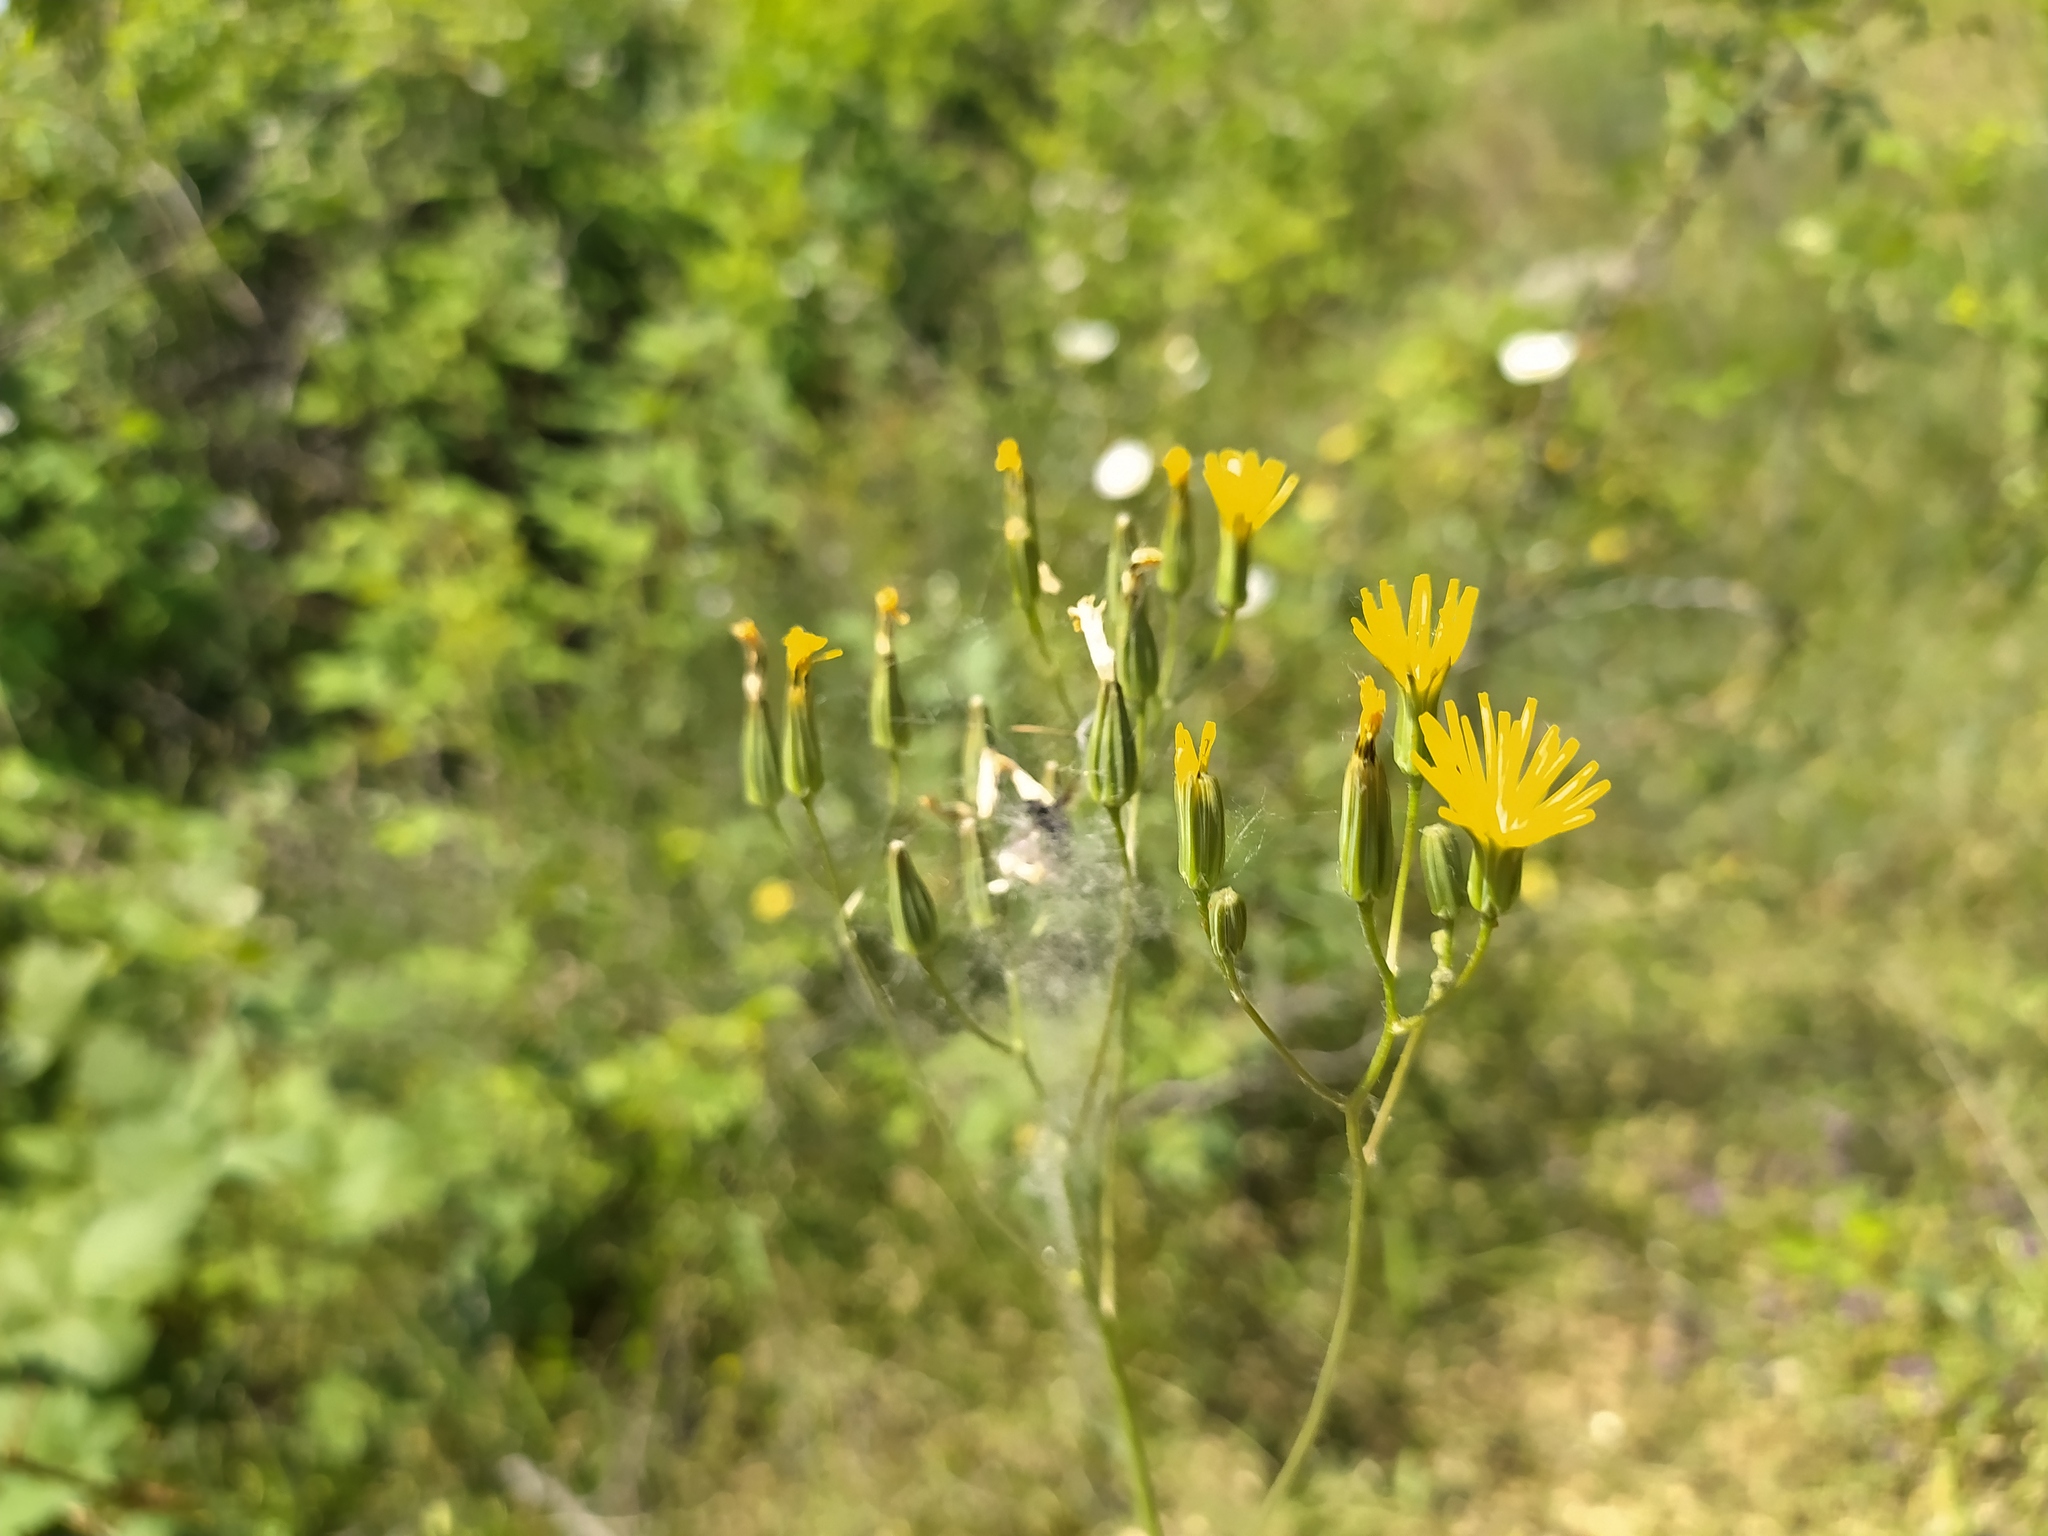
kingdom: Plantae
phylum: Tracheophyta
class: Magnoliopsida
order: Asterales
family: Asteraceae
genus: Crepis
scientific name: Crepis pulchra
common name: Hawk's-beard
